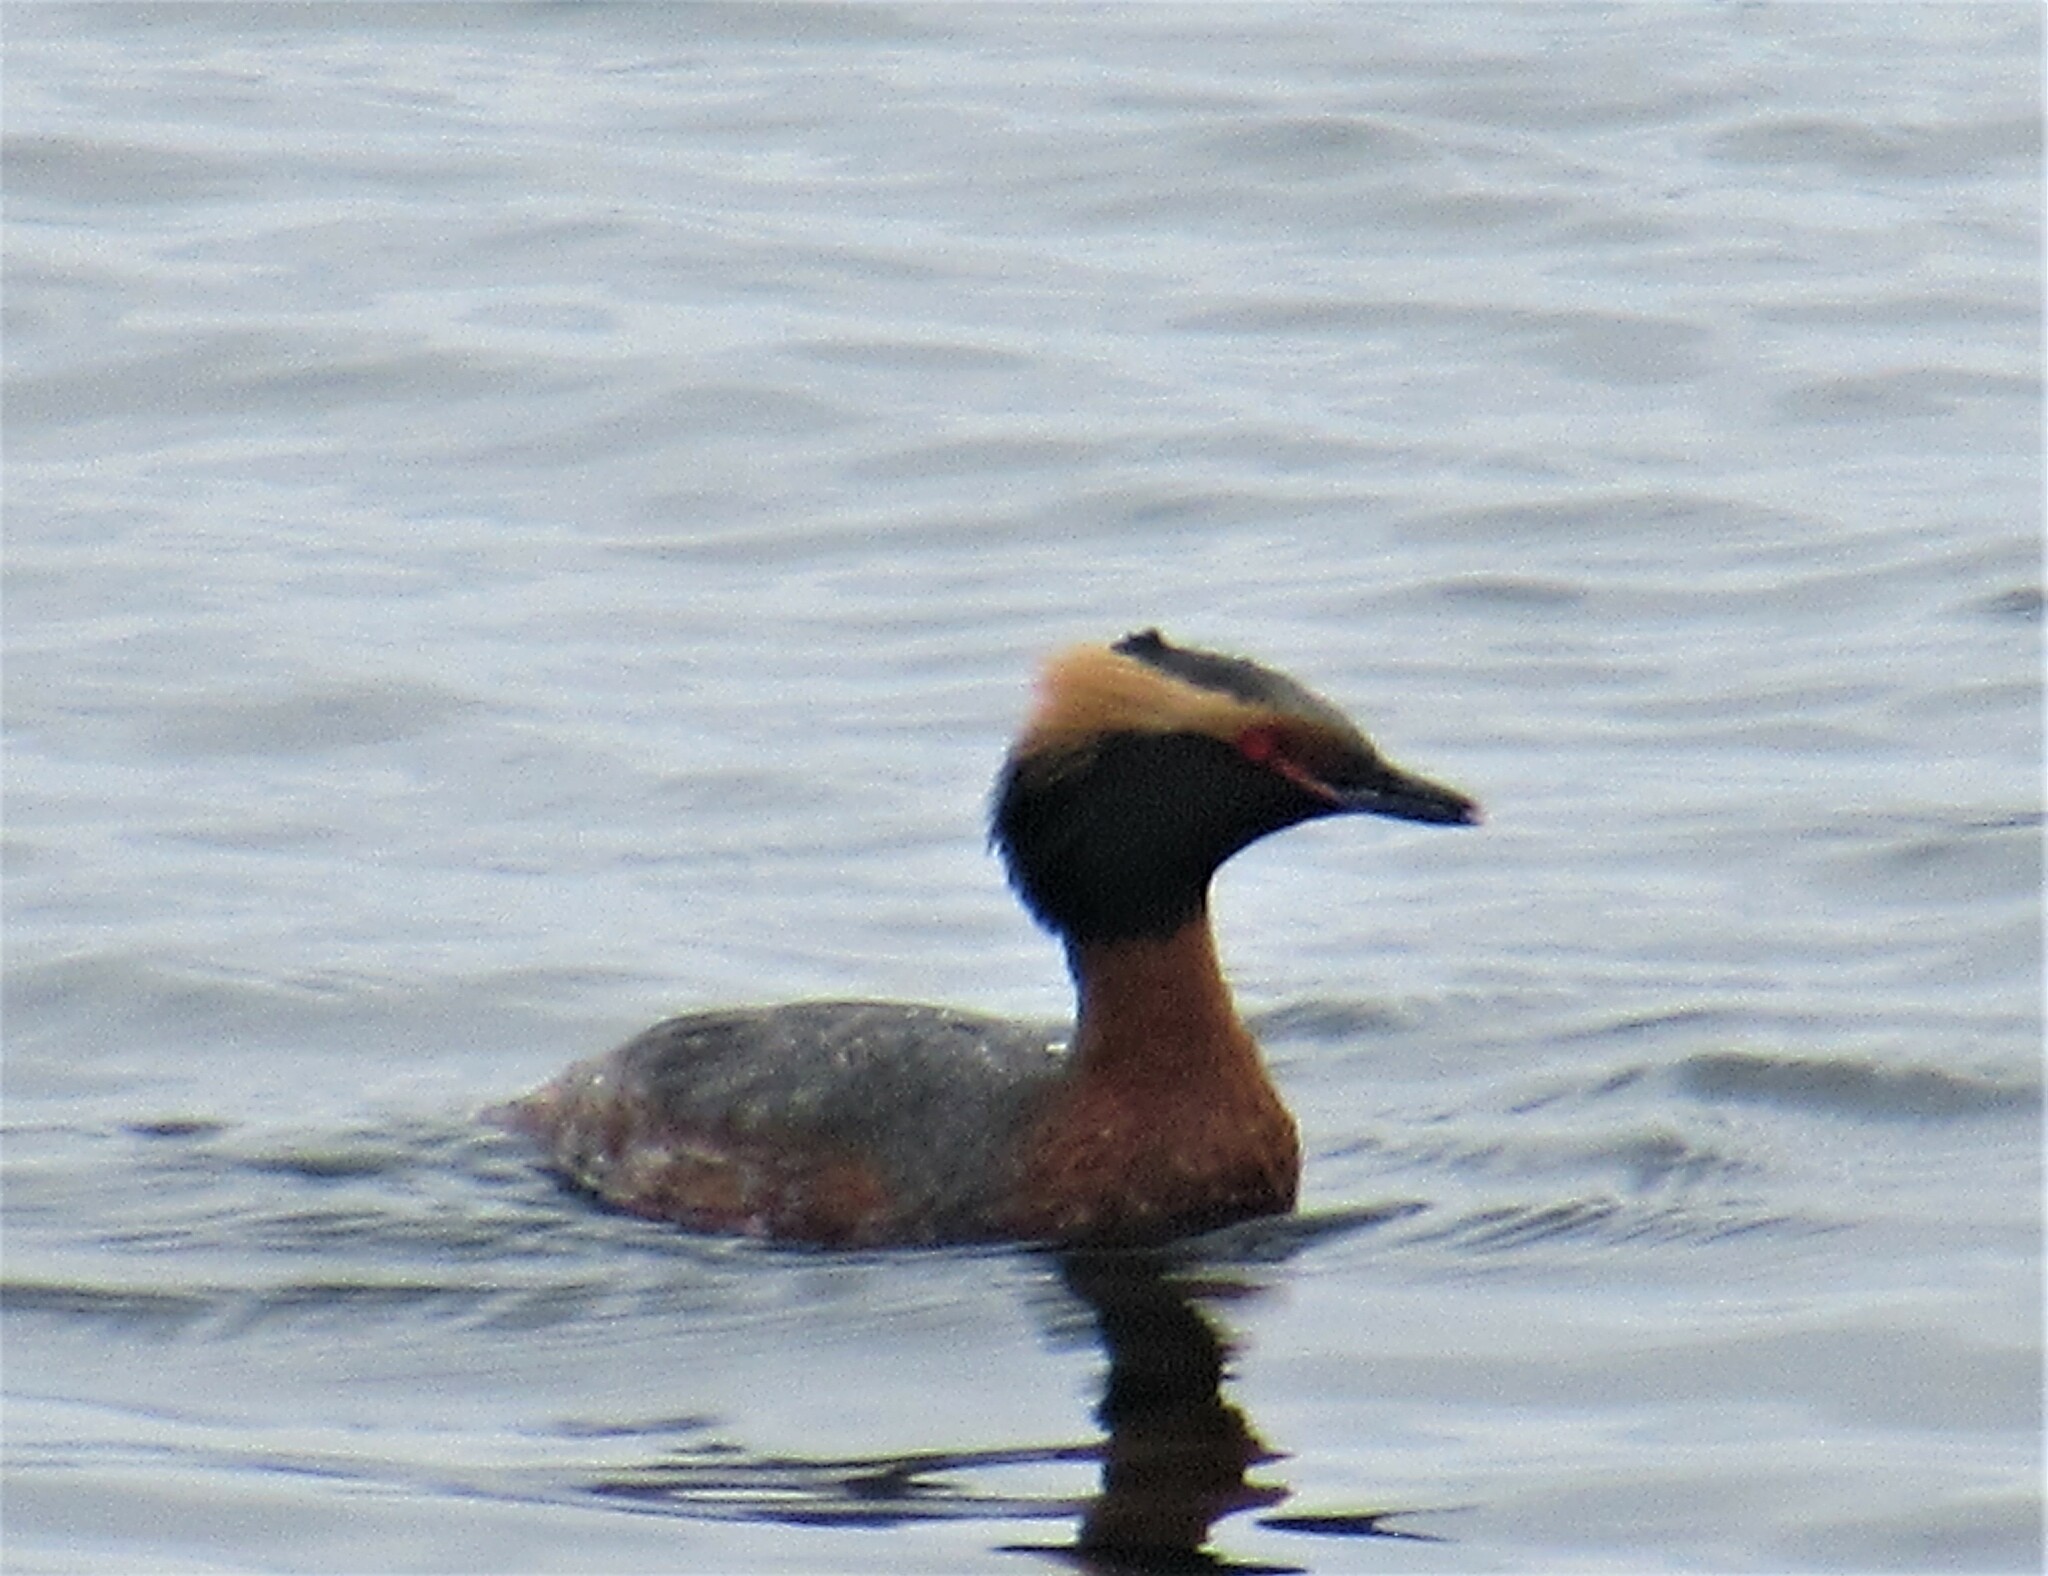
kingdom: Animalia
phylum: Chordata
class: Aves
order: Podicipediformes
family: Podicipedidae
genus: Podiceps
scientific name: Podiceps auritus
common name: Horned grebe
